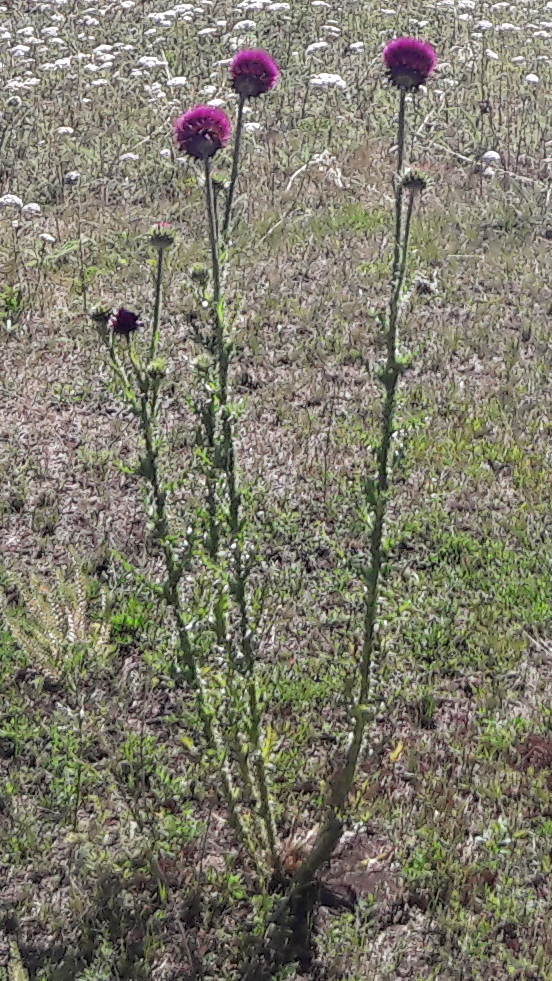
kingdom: Plantae
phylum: Tracheophyta
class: Magnoliopsida
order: Asterales
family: Asteraceae
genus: Carduus
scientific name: Carduus nutans
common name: Musk thistle
